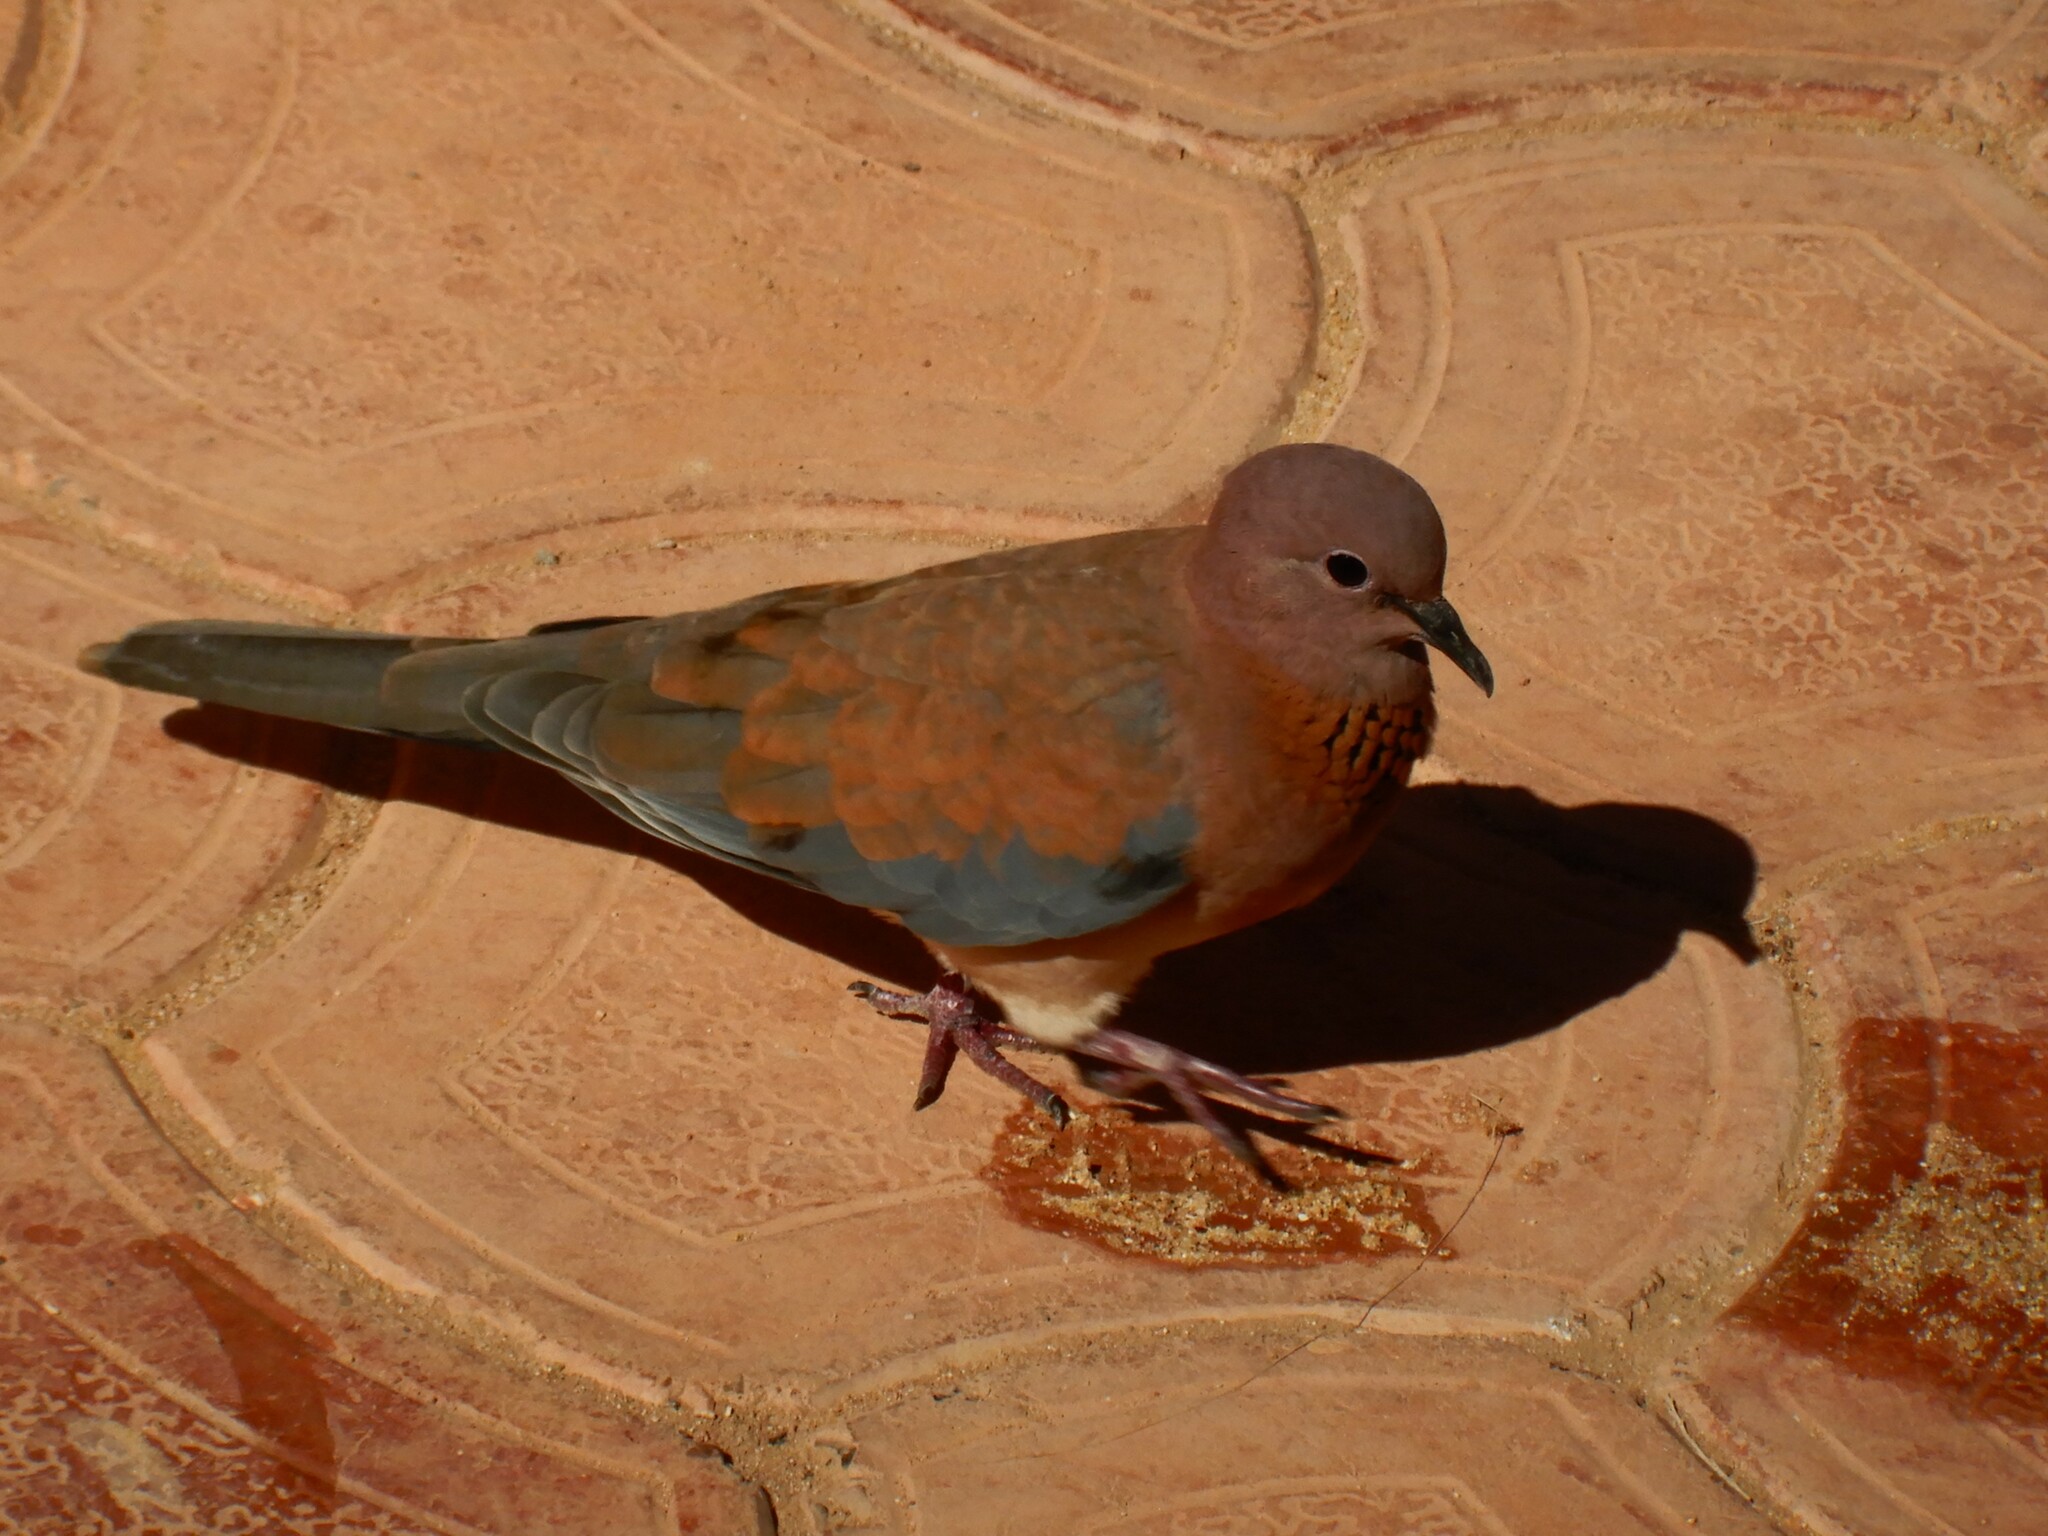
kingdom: Animalia
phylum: Chordata
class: Aves
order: Columbiformes
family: Columbidae
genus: Spilopelia
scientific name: Spilopelia senegalensis
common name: Laughing dove
